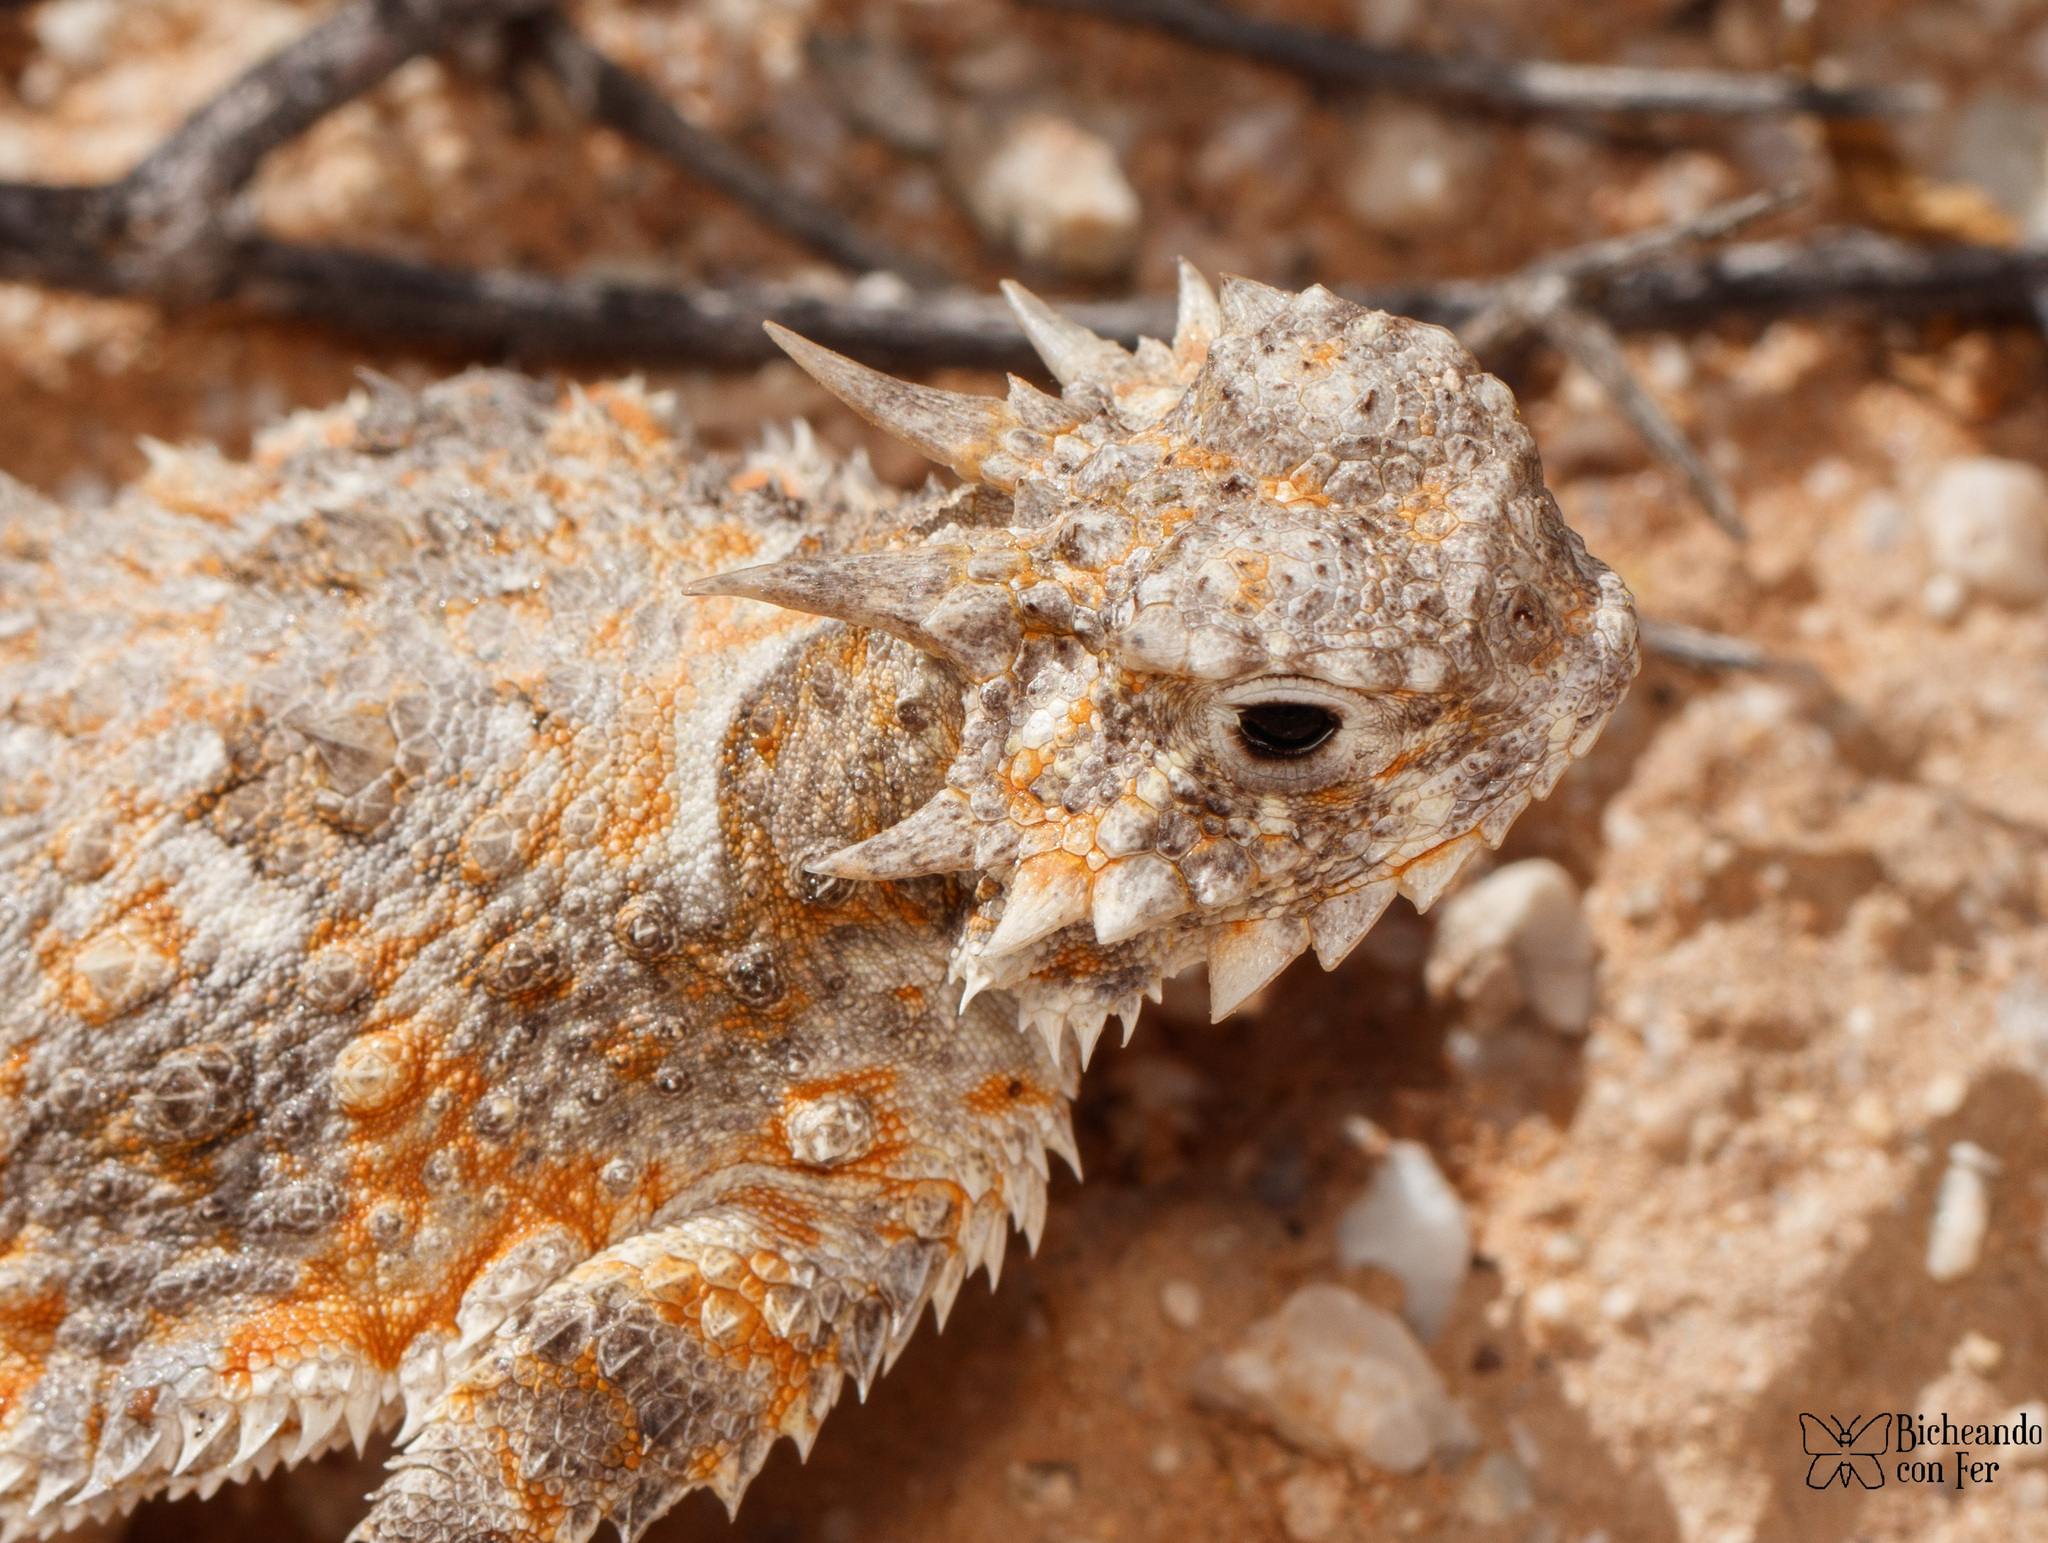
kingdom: Animalia
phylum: Chordata
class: Squamata
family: Phrynosomatidae
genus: Phrynosoma
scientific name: Phrynosoma goodei
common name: Sonoran horned lizard
